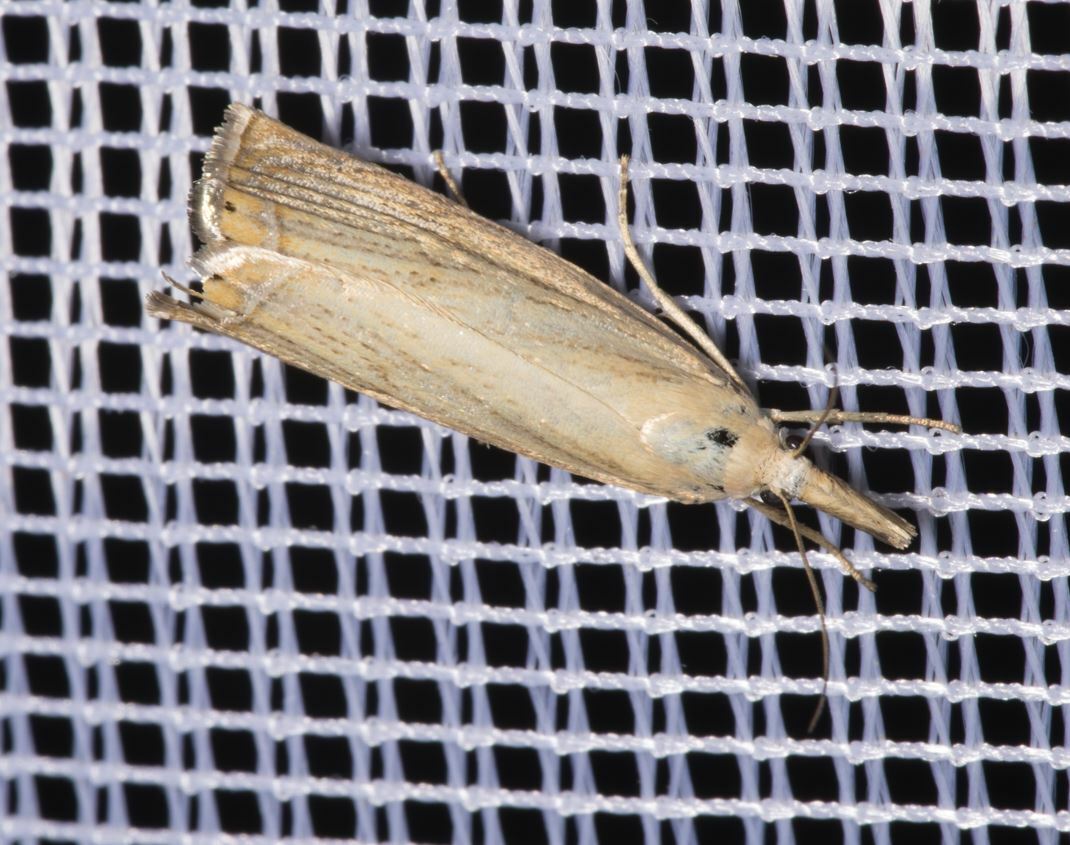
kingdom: Animalia
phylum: Arthropoda
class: Insecta
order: Lepidoptera
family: Crambidae
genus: Chrysoteuchia
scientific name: Chrysoteuchia culmella
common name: Garden grass-veneer
